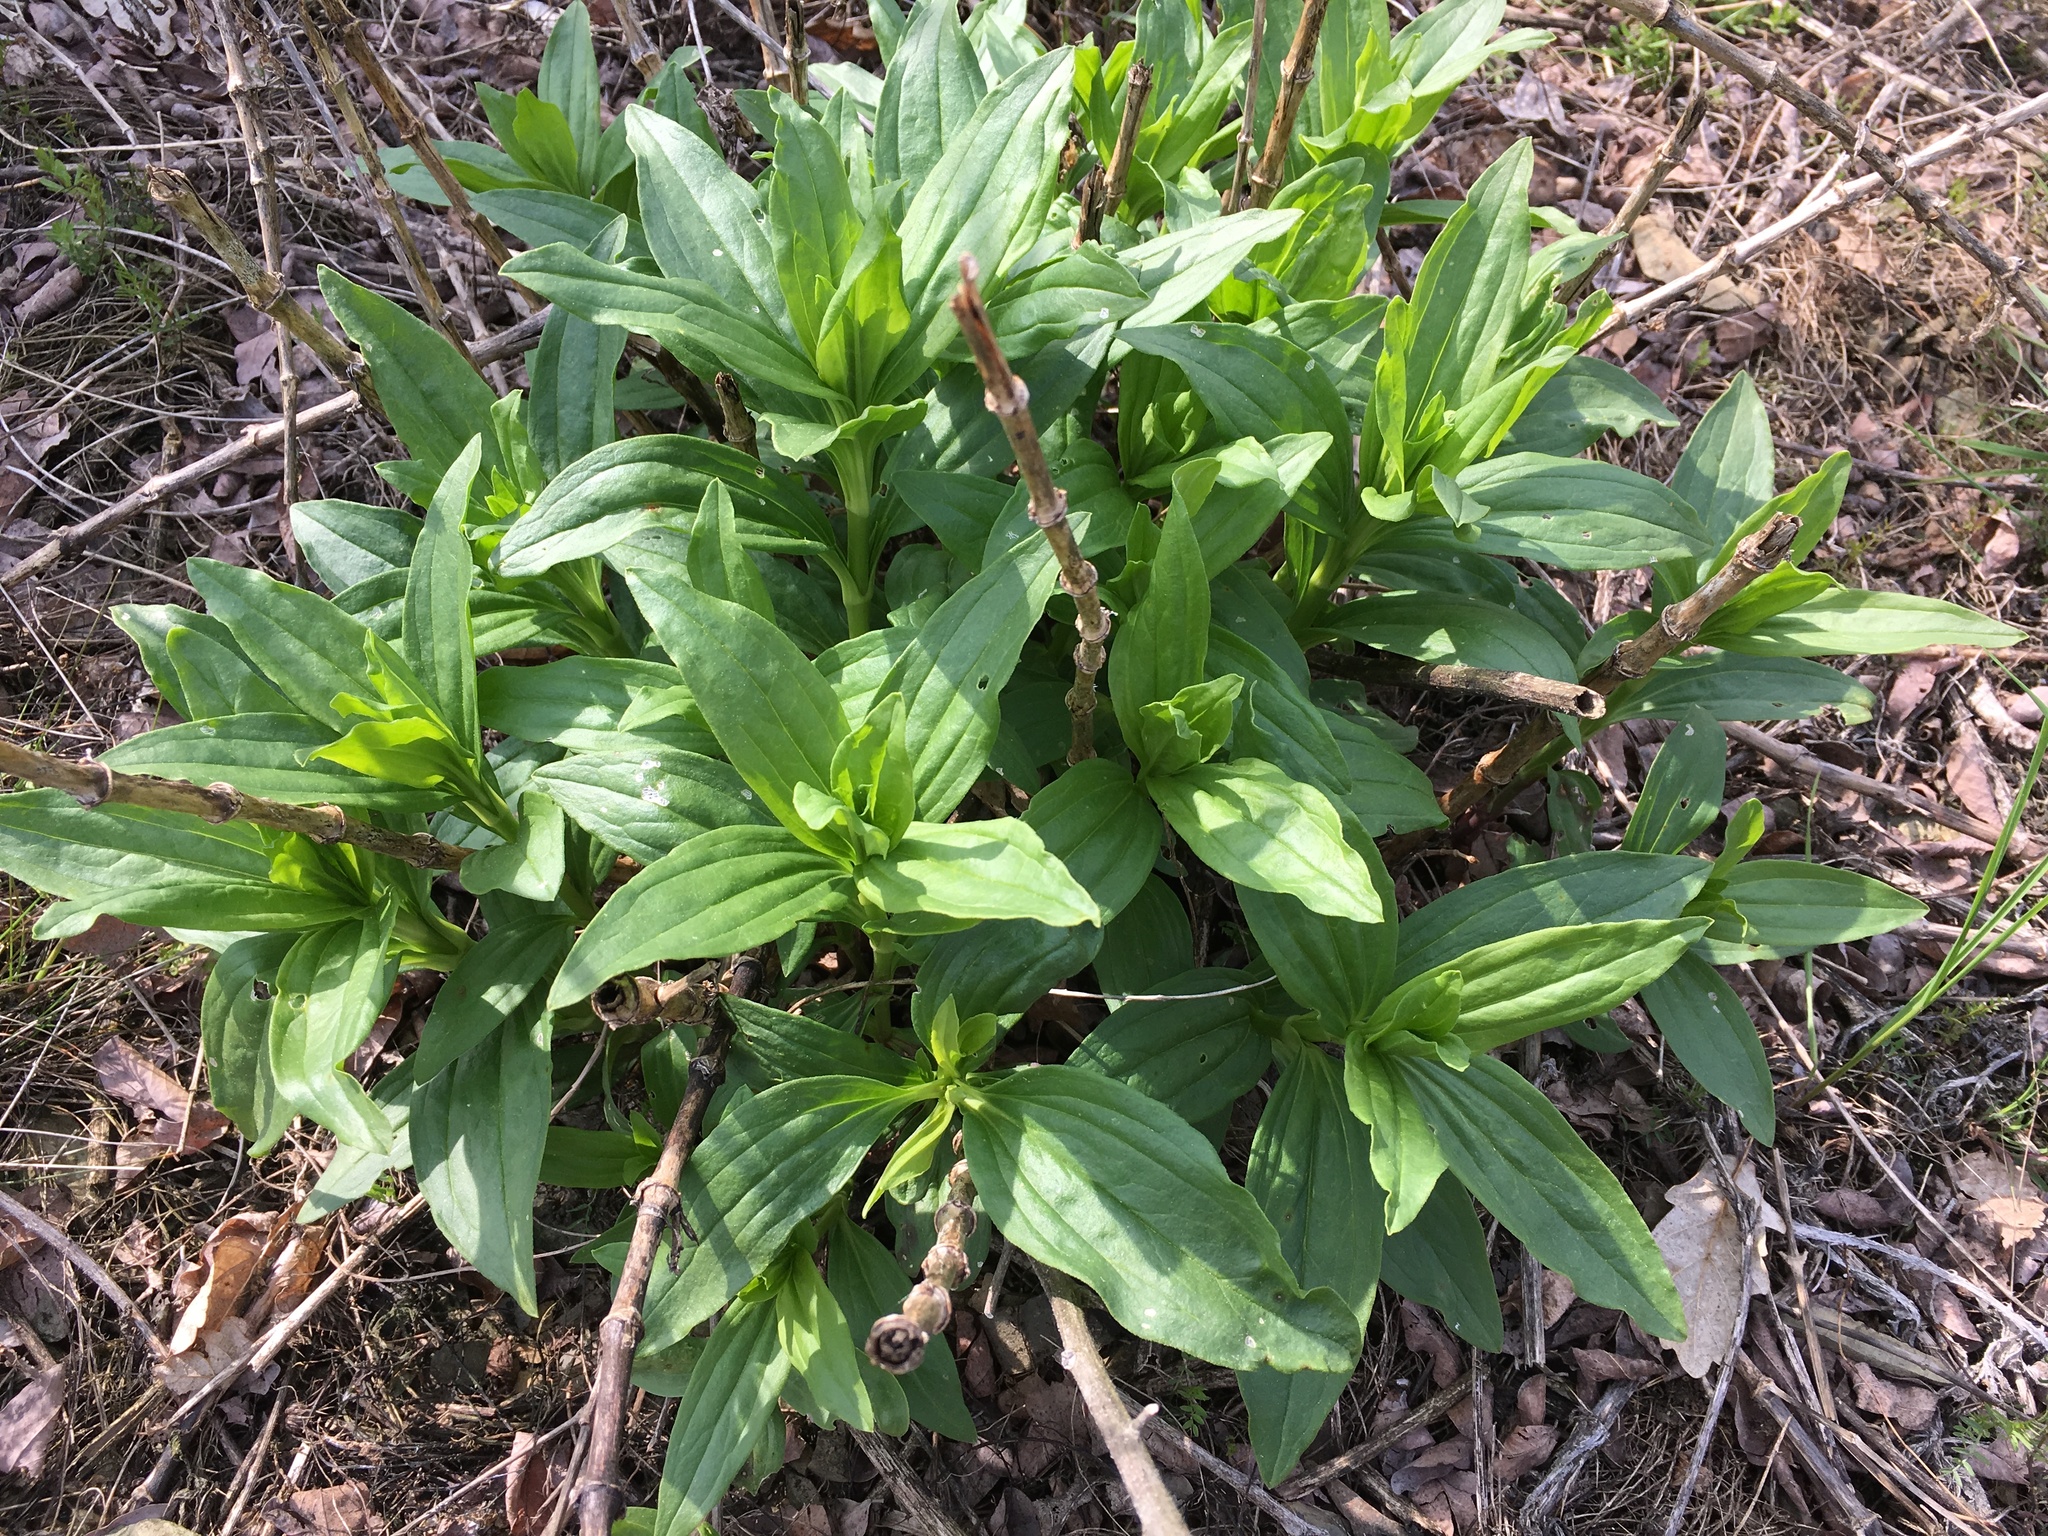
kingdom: Plantae
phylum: Tracheophyta
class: Magnoliopsida
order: Caryophyllales
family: Caryophyllaceae
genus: Saponaria
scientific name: Saponaria officinalis
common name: Soapwort
